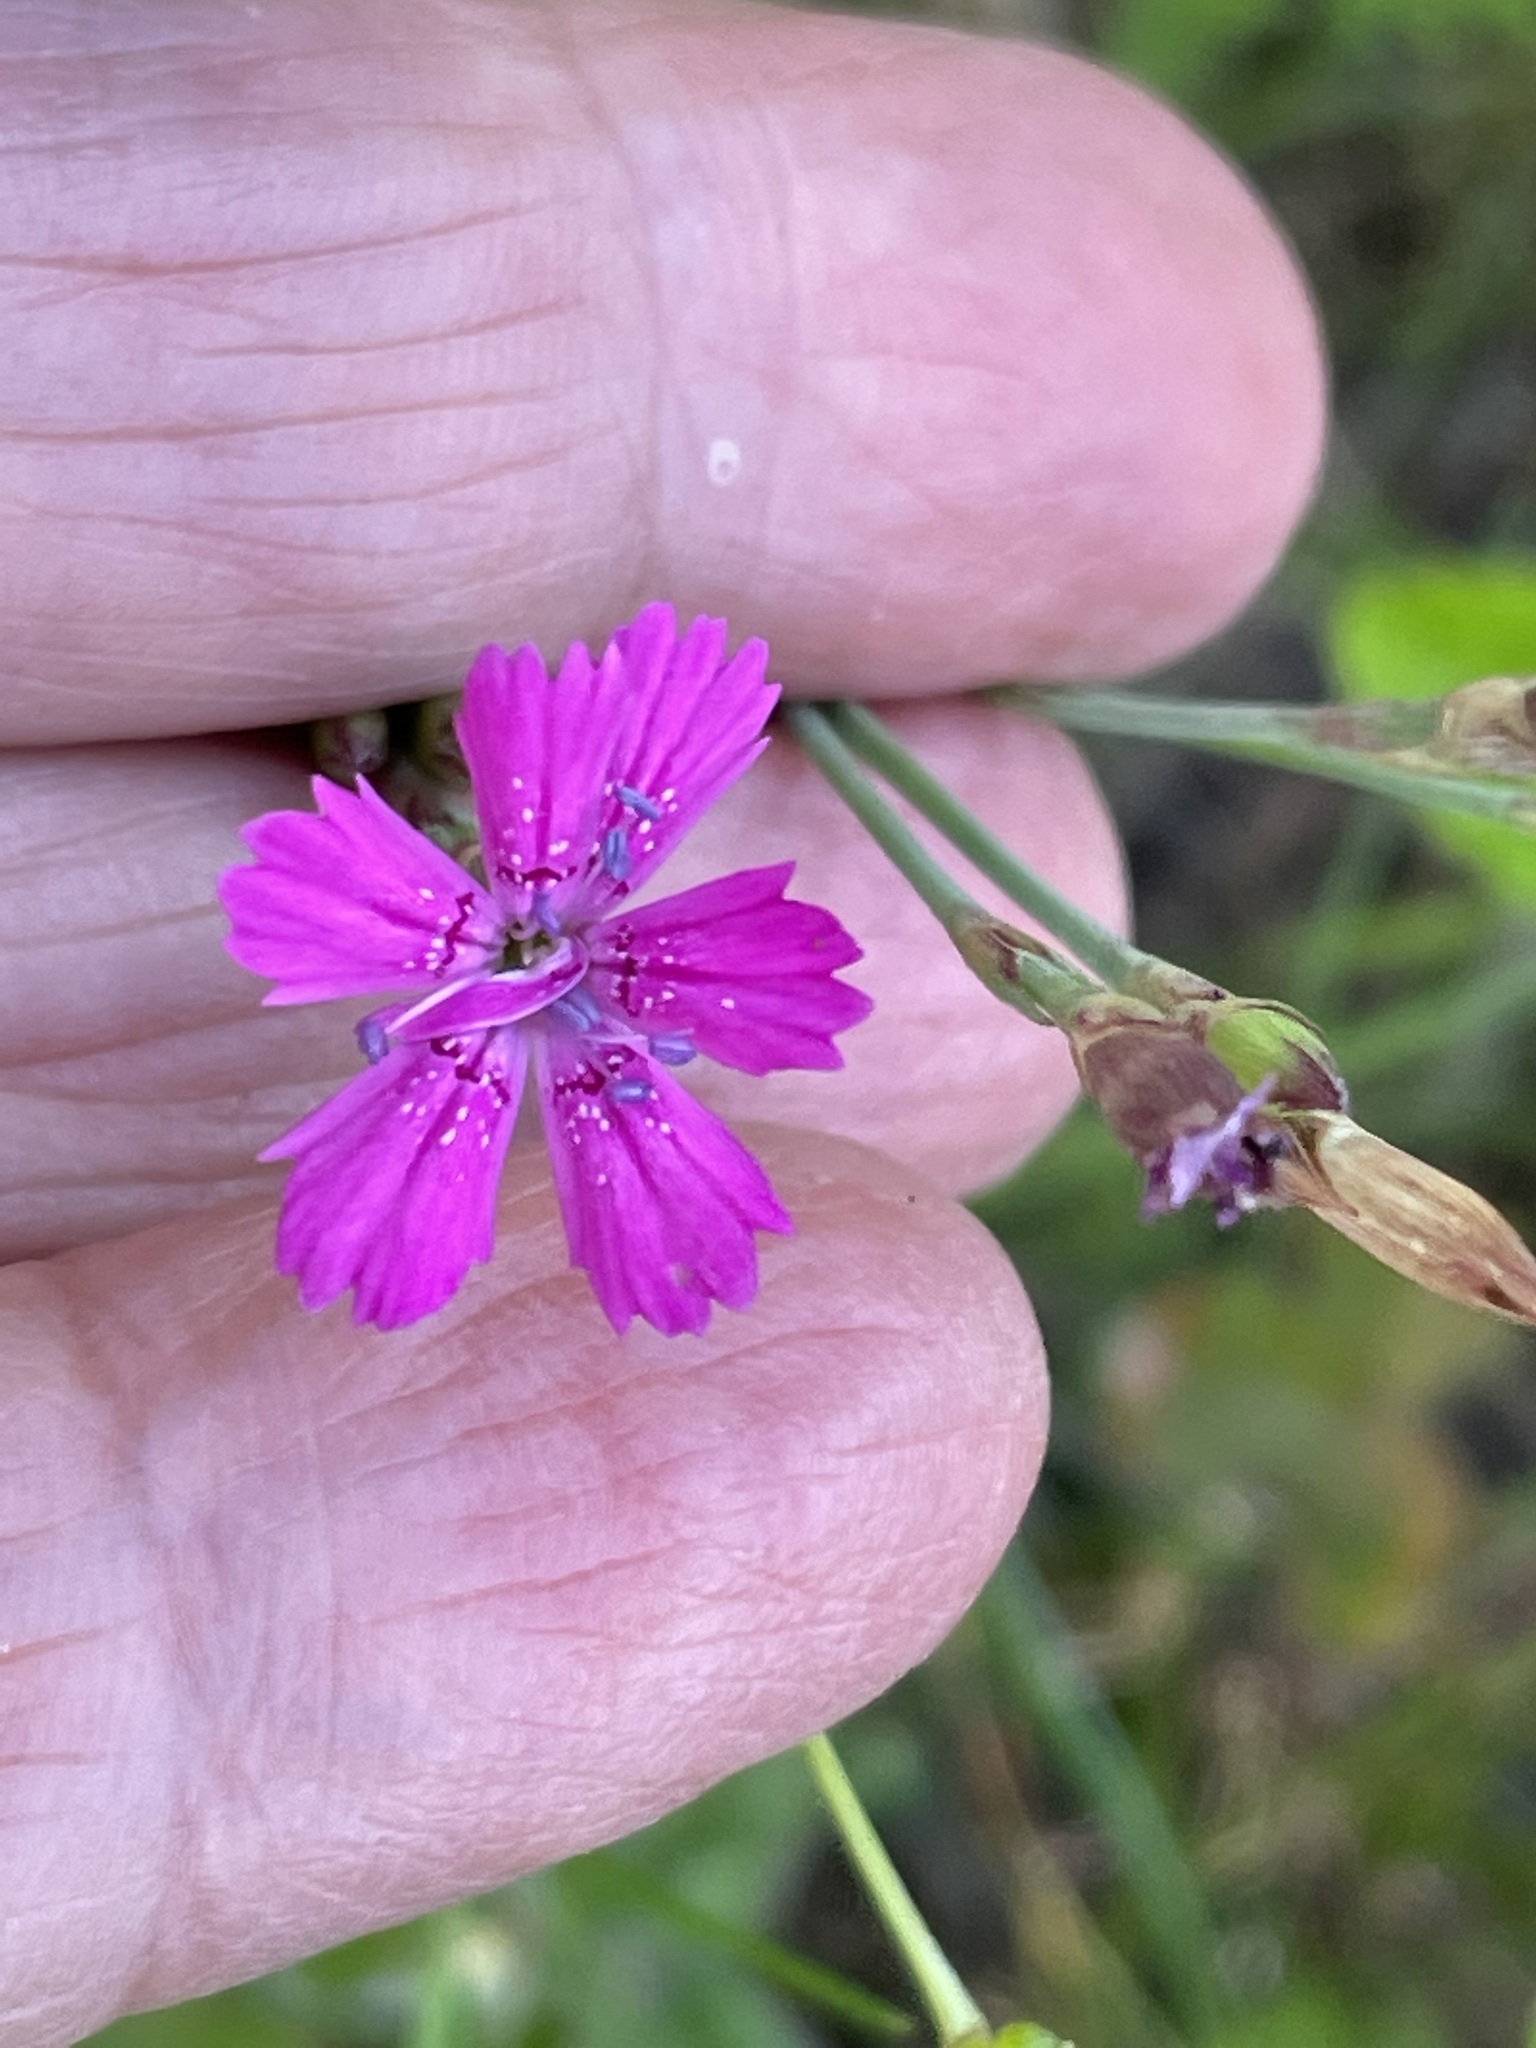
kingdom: Plantae
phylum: Tracheophyta
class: Magnoliopsida
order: Caryophyllales
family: Caryophyllaceae
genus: Dianthus
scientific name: Dianthus deltoides
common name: Maiden pink
